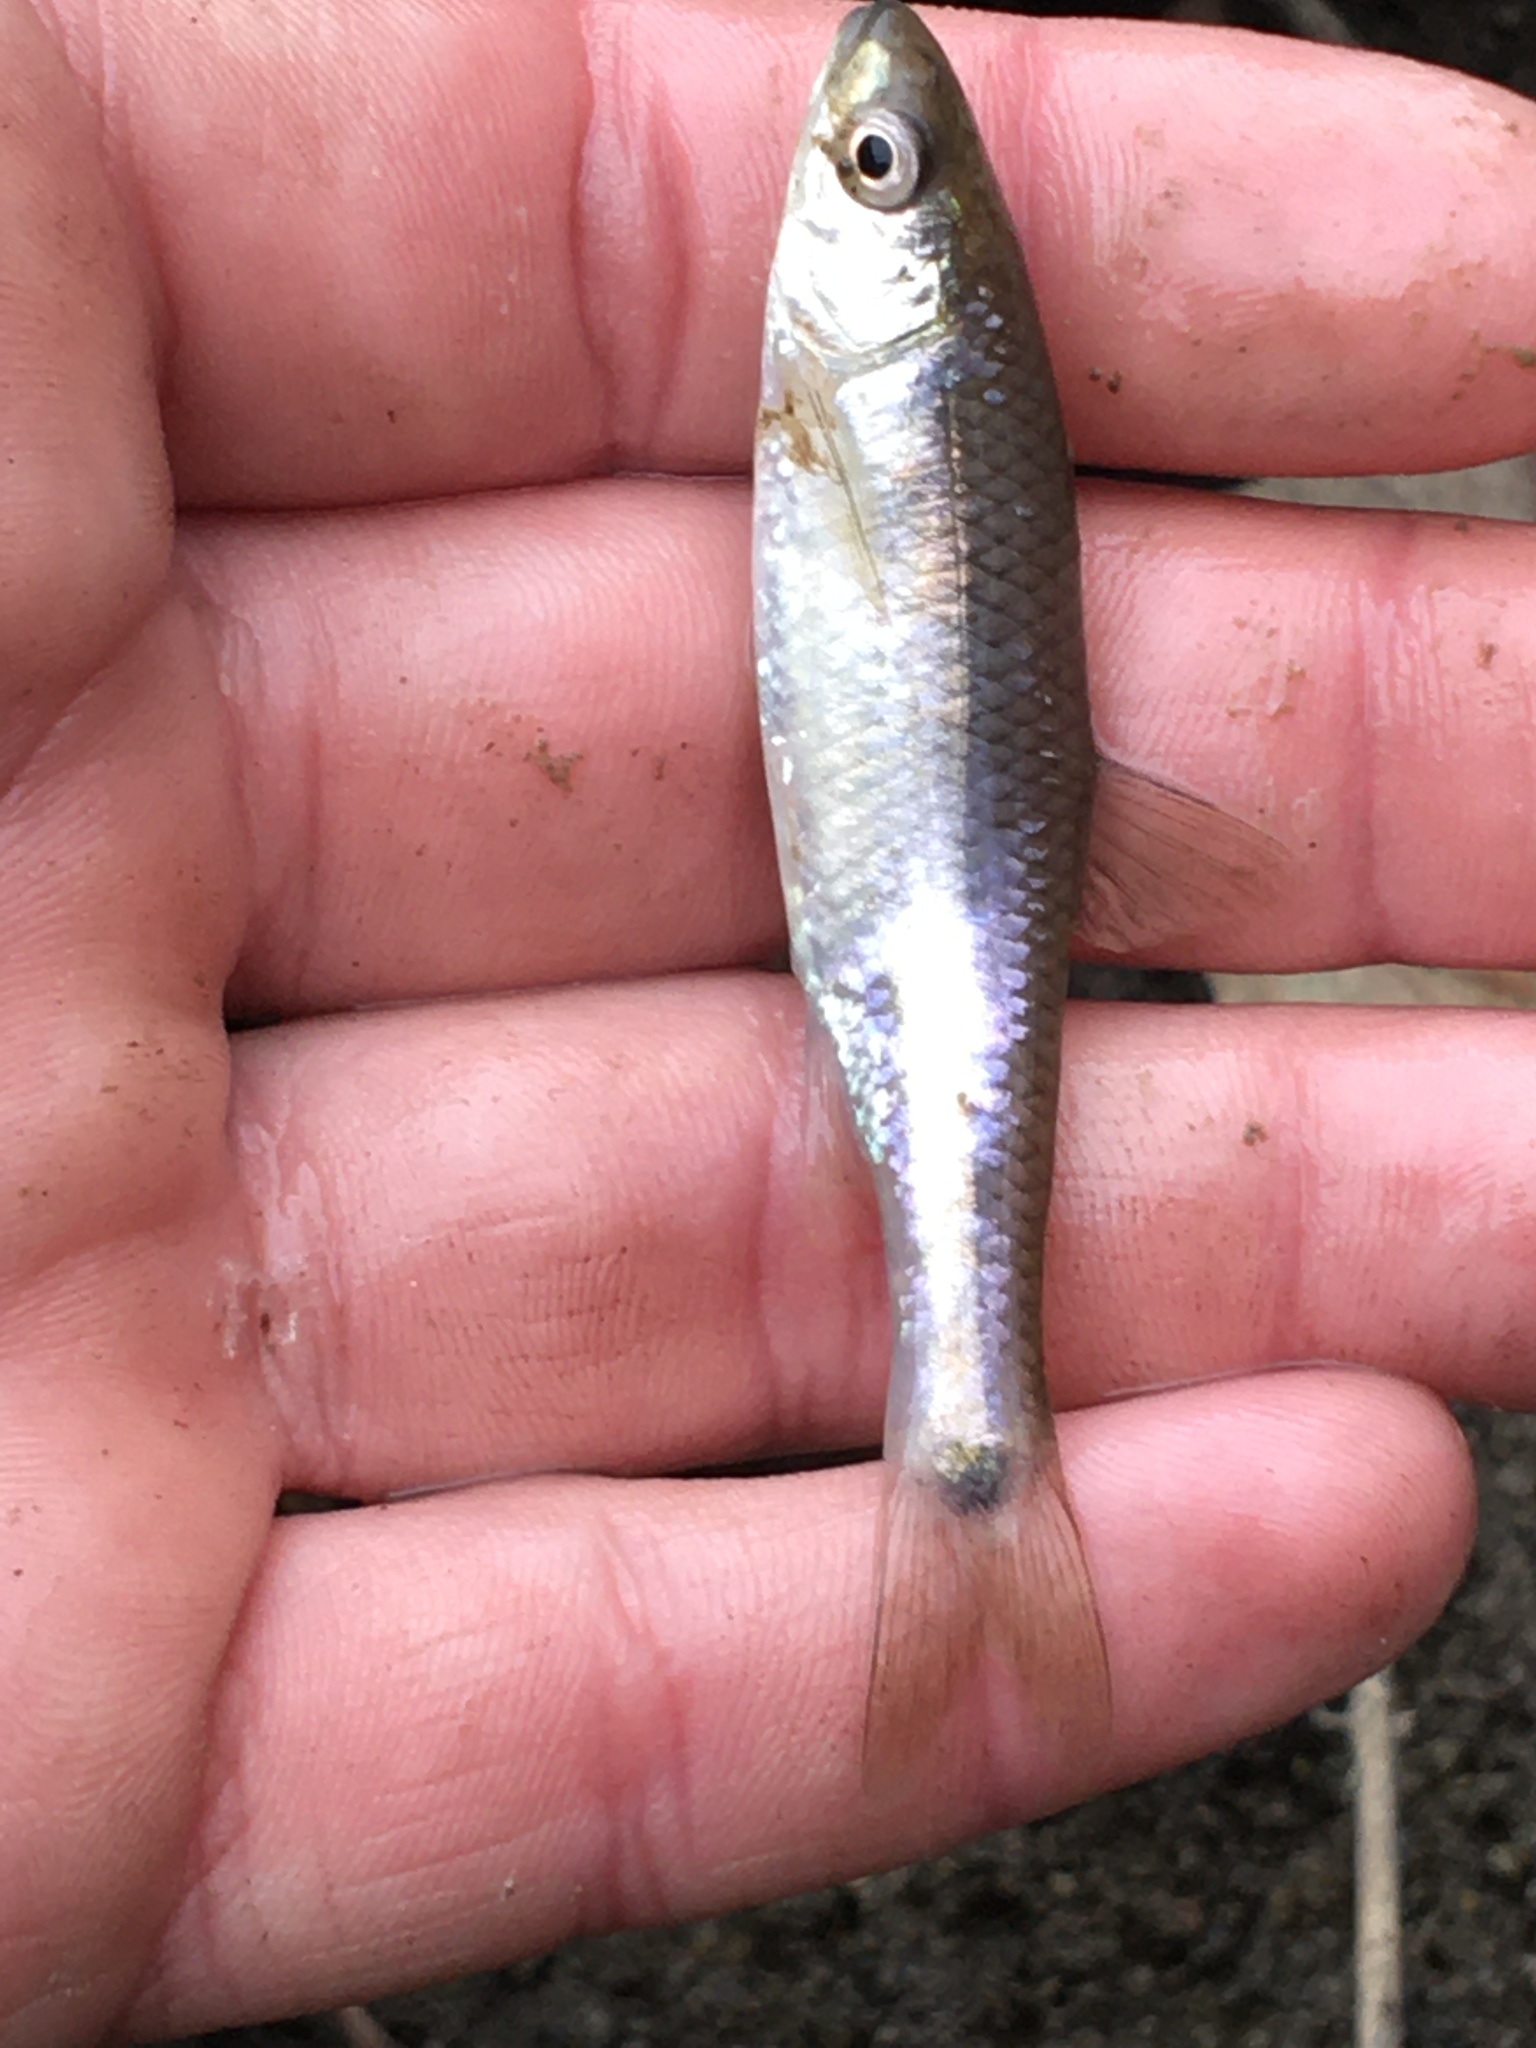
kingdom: Animalia
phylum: Chordata
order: Cypriniformes
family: Cyprinidae
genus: Cyprinella
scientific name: Cyprinella venusta
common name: Blacktail shiner
